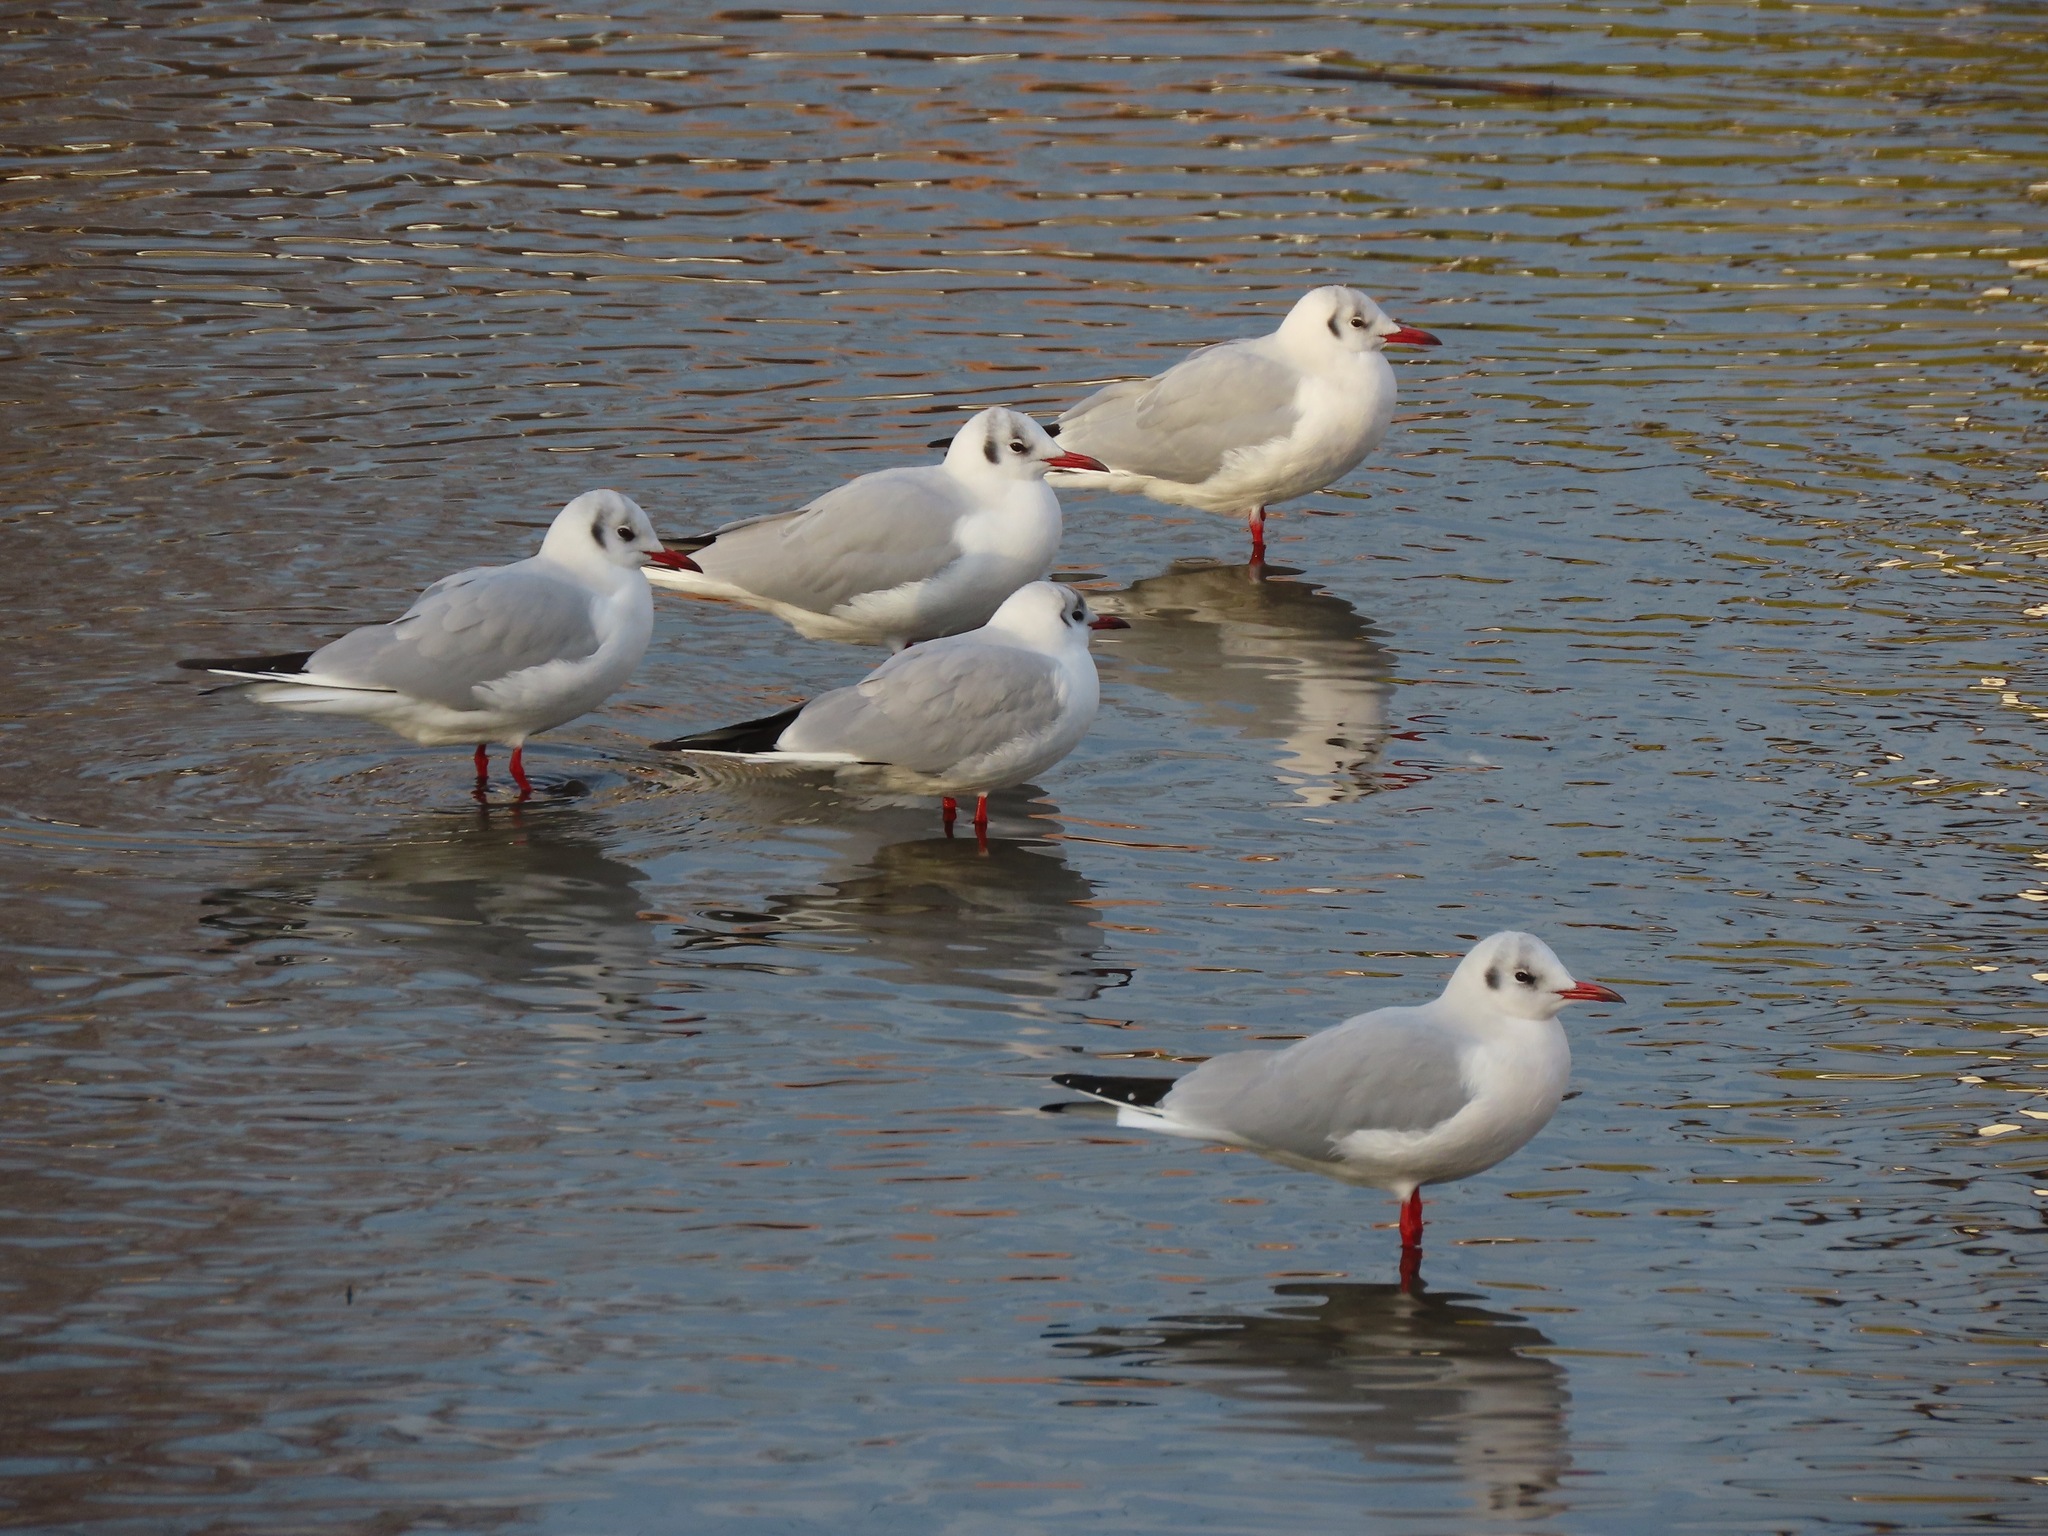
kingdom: Animalia
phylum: Chordata
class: Aves
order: Charadriiformes
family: Laridae
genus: Chroicocephalus
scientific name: Chroicocephalus ridibundus
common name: Black-headed gull
